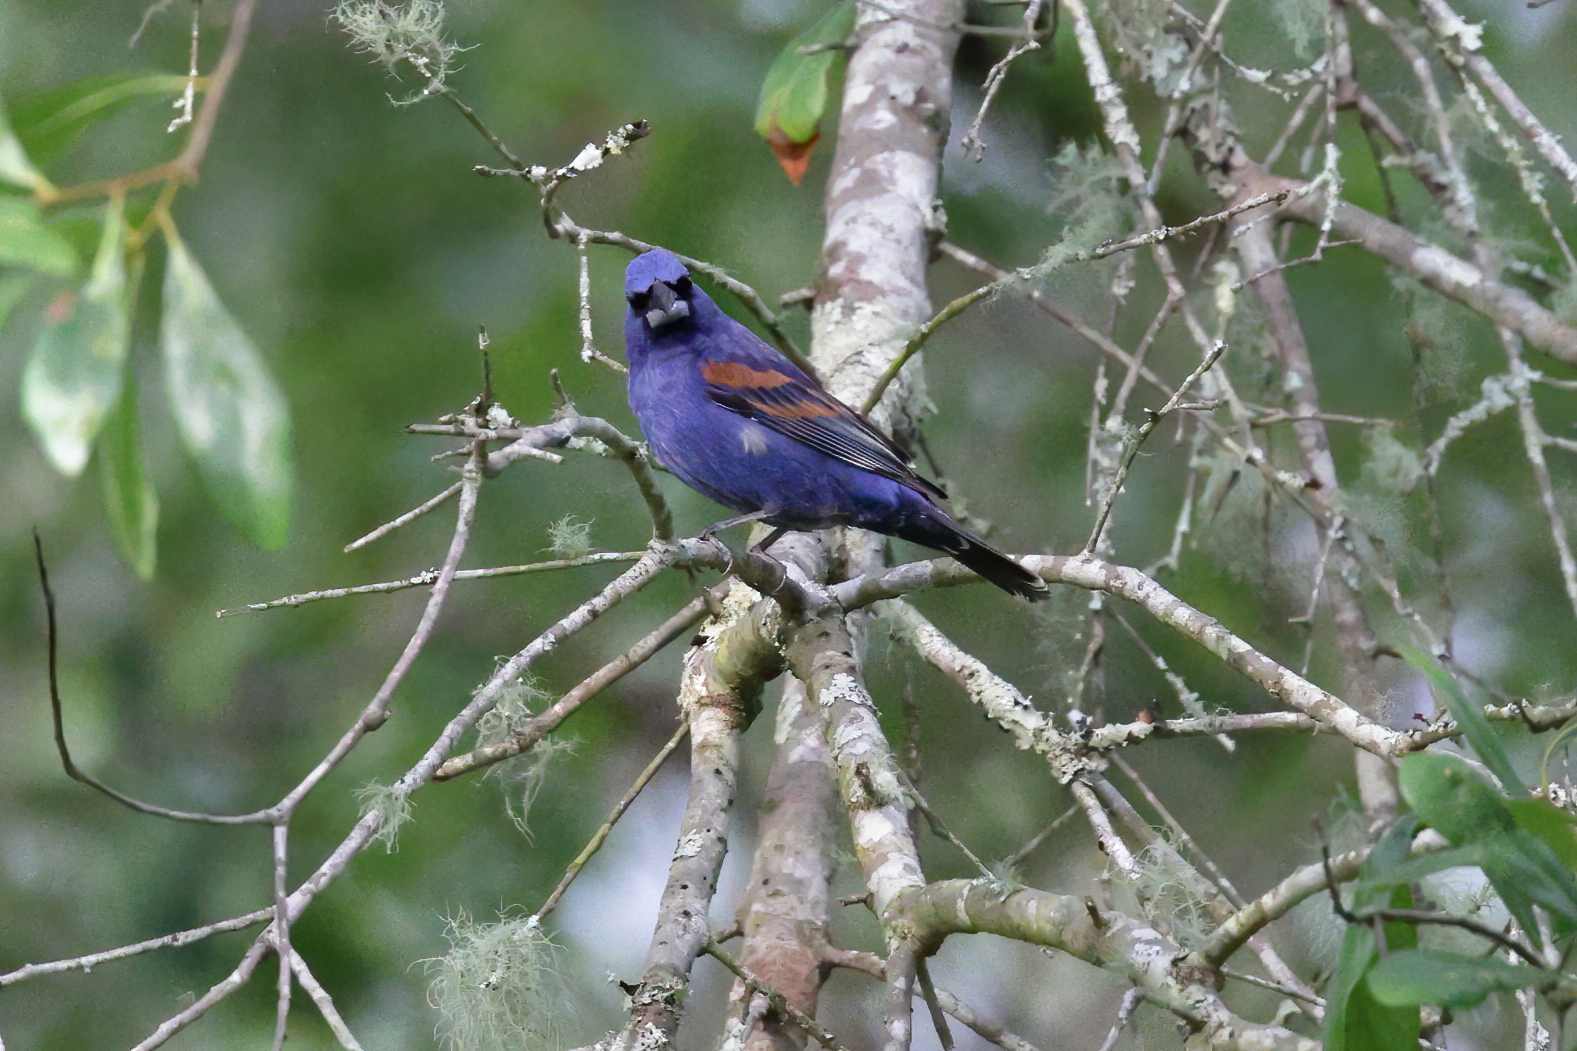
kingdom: Animalia
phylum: Chordata
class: Aves
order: Passeriformes
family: Cardinalidae
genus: Passerina
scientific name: Passerina caerulea
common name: Blue grosbeak
